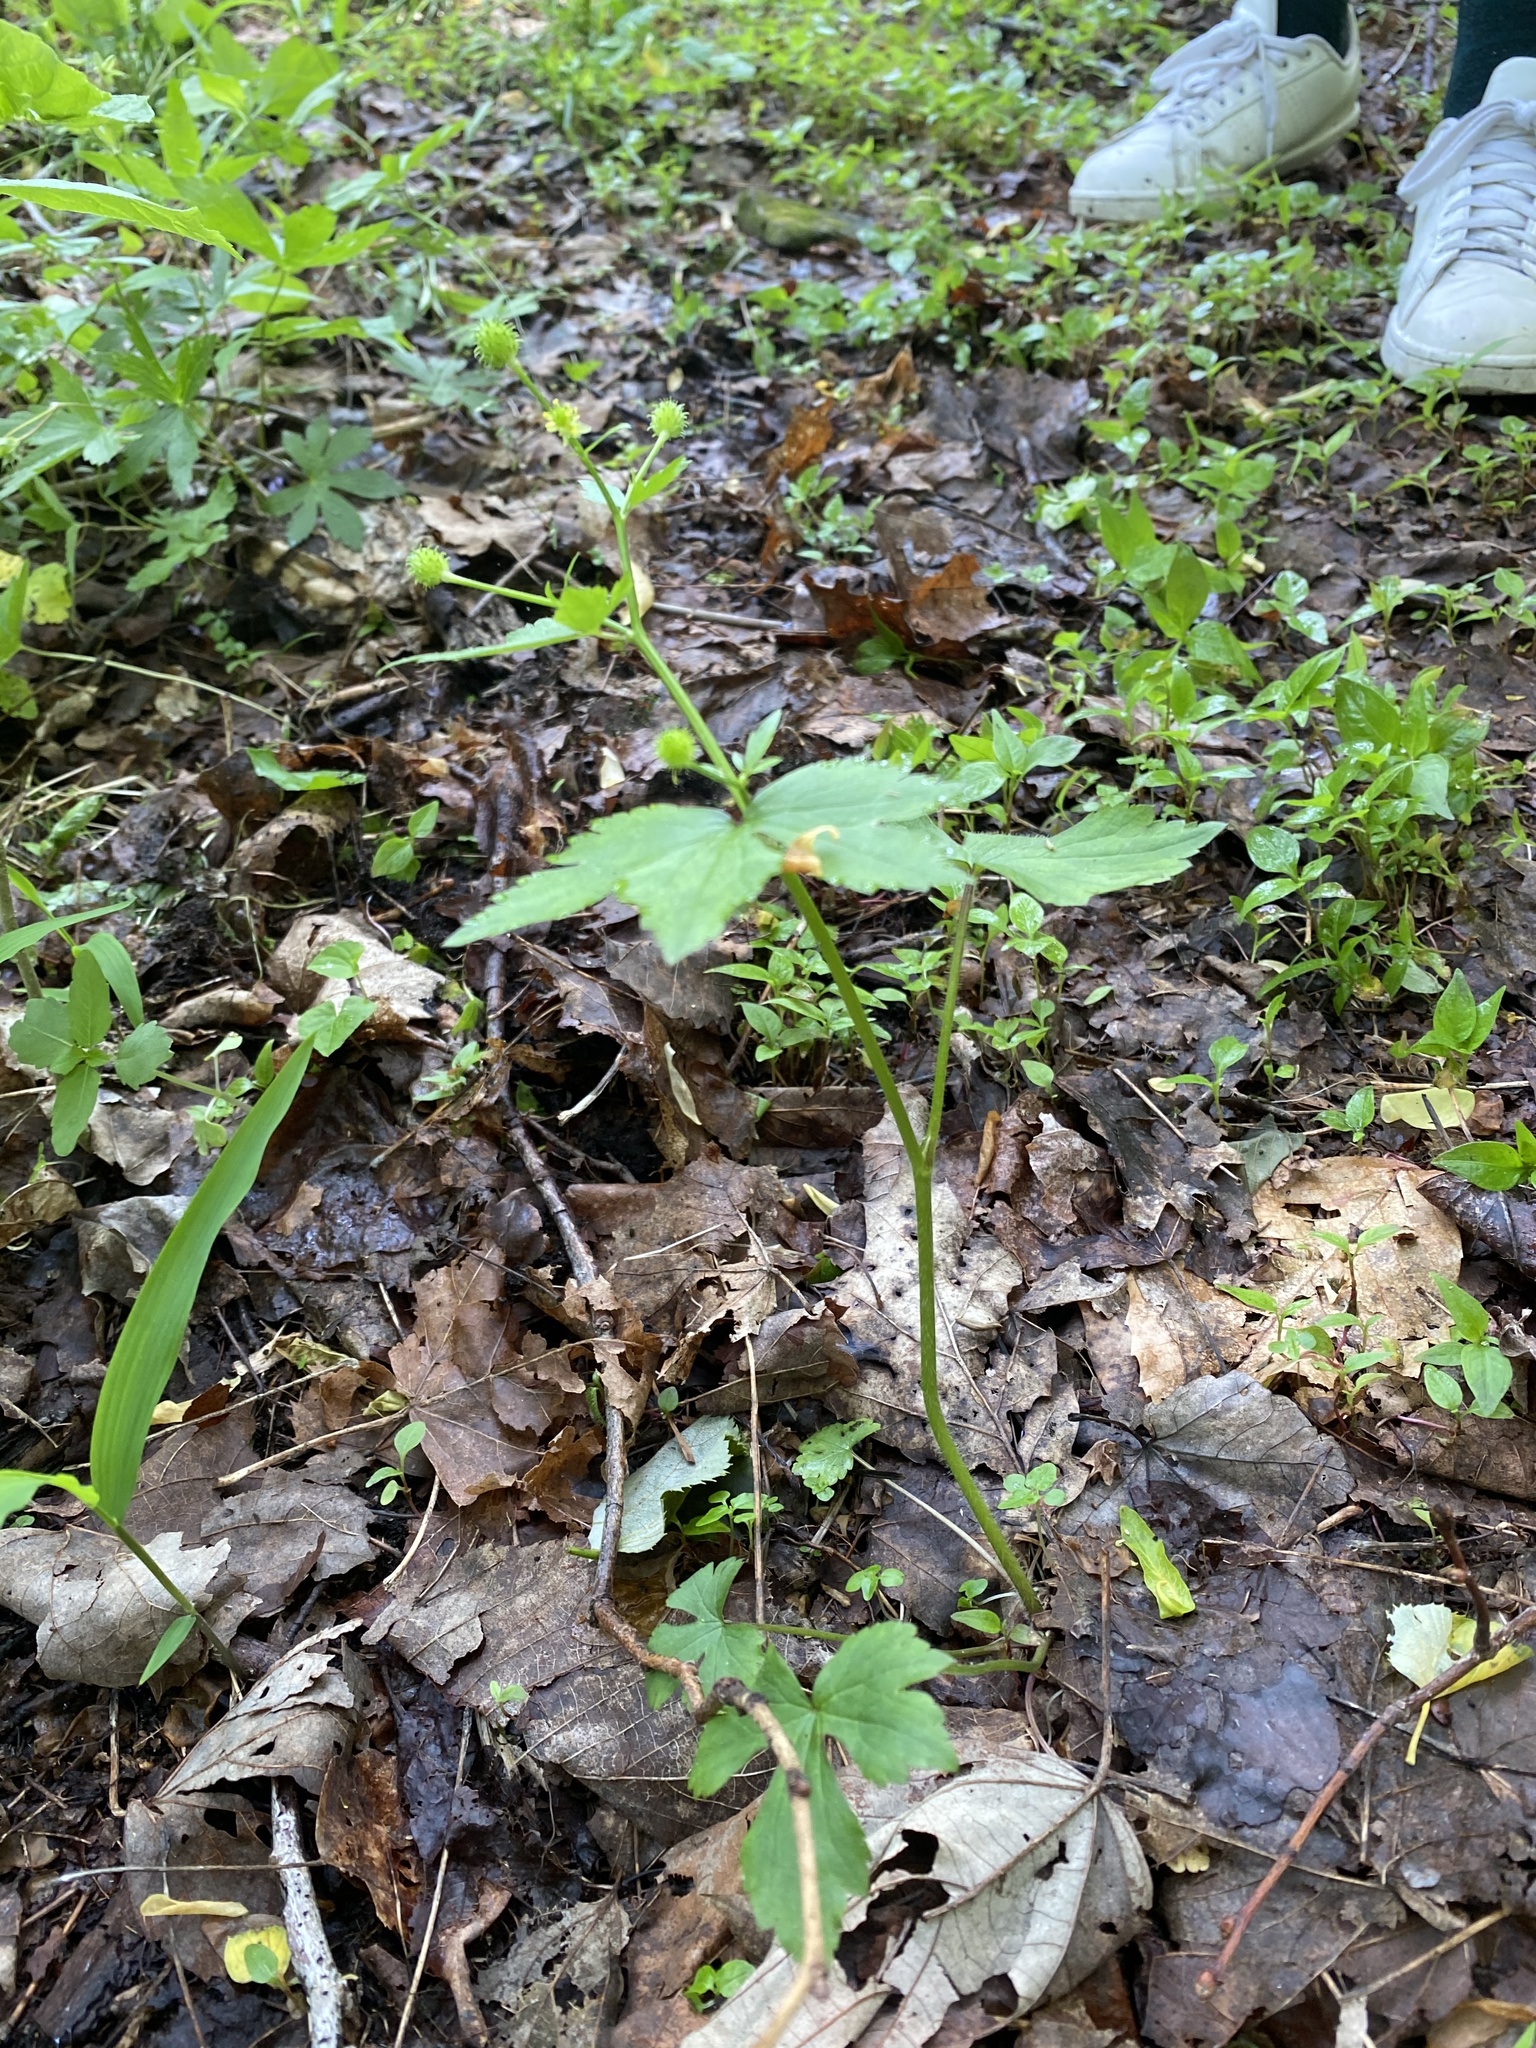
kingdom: Plantae
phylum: Tracheophyta
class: Magnoliopsida
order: Ranunculales
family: Ranunculaceae
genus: Ranunculus
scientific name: Ranunculus recurvatus
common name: Blisterwort
